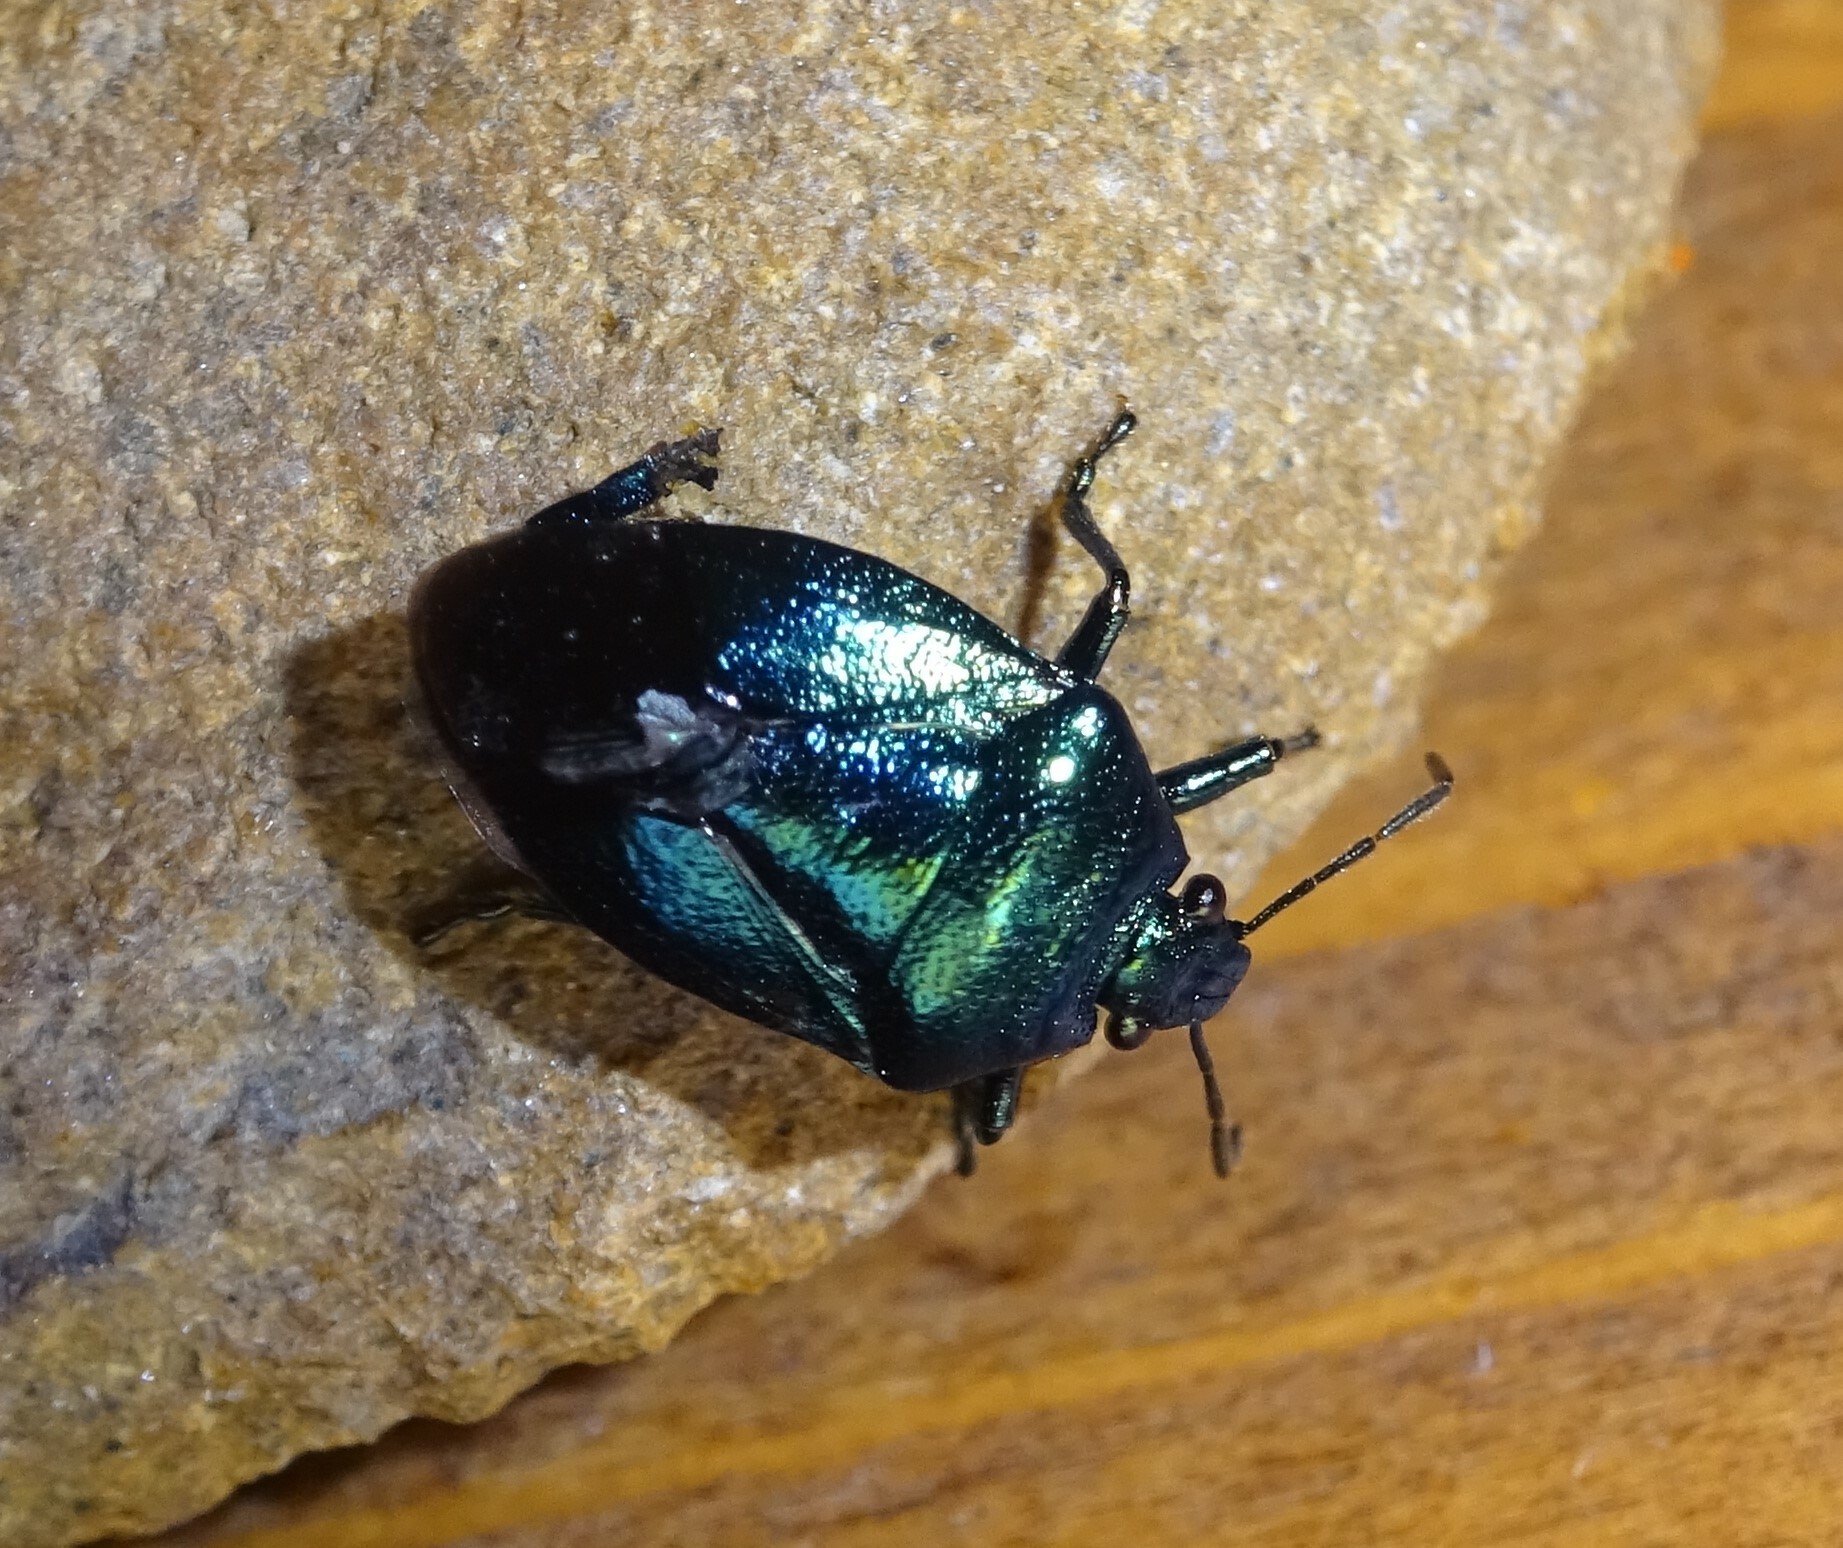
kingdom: Animalia
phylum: Arthropoda
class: Insecta
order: Hemiptera
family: Pentatomidae
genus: Zicrona
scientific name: Zicrona caerulea
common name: Blue shieldbug
